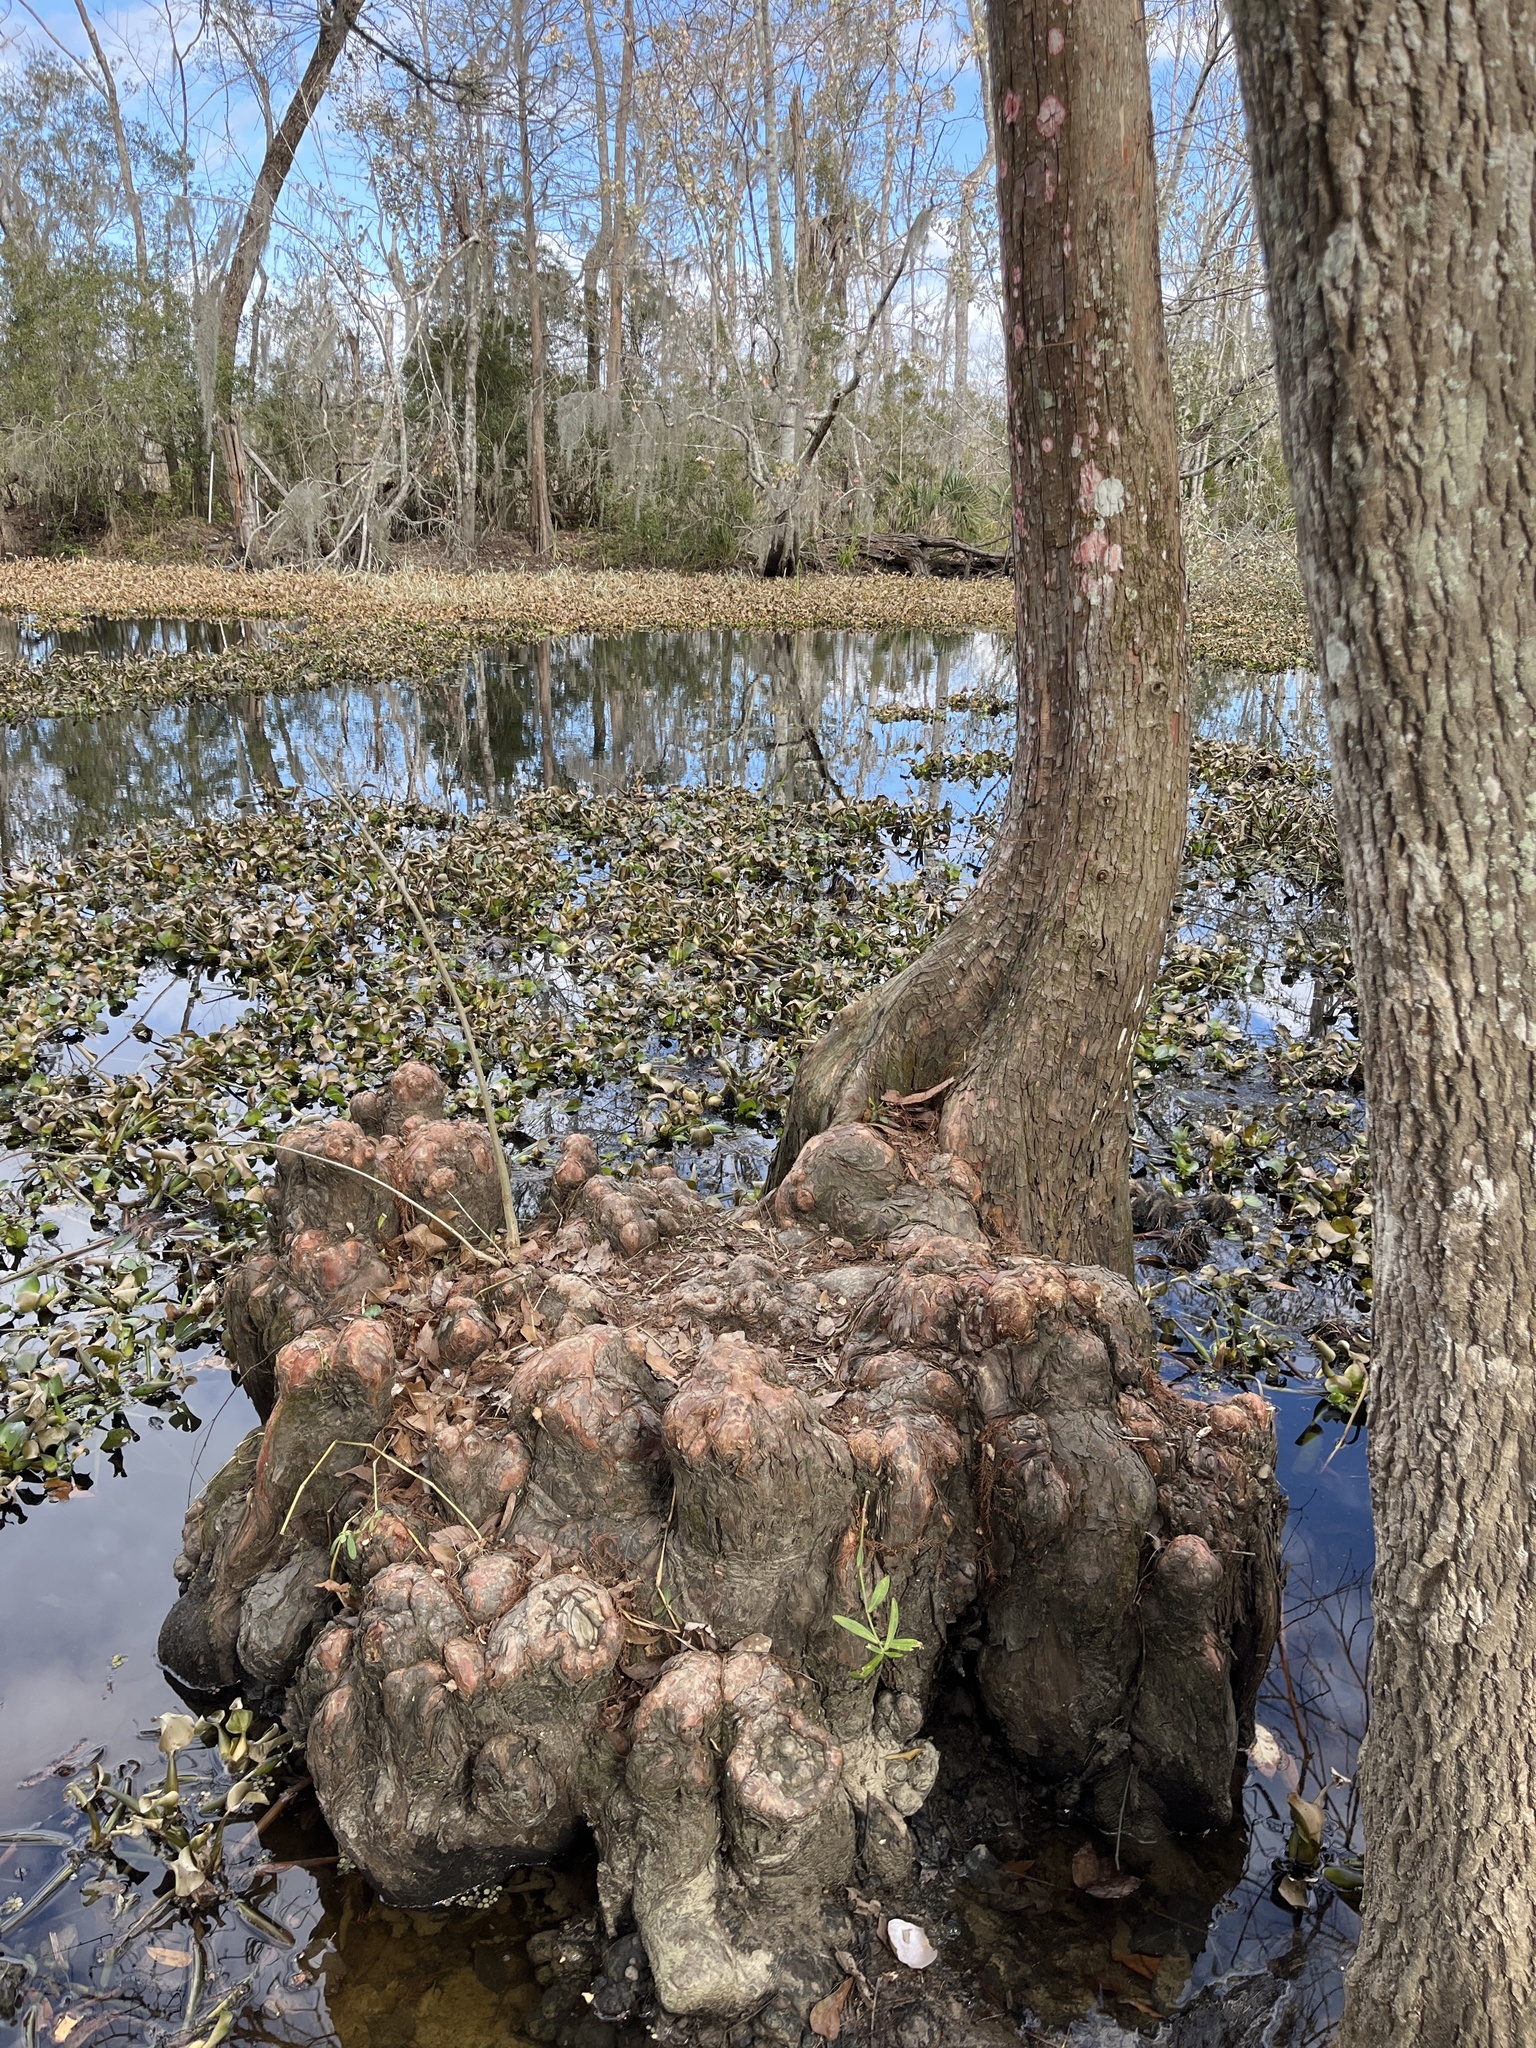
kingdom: Plantae
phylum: Tracheophyta
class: Pinopsida
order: Pinales
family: Cupressaceae
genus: Taxodium
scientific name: Taxodium distichum
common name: Bald cypress
